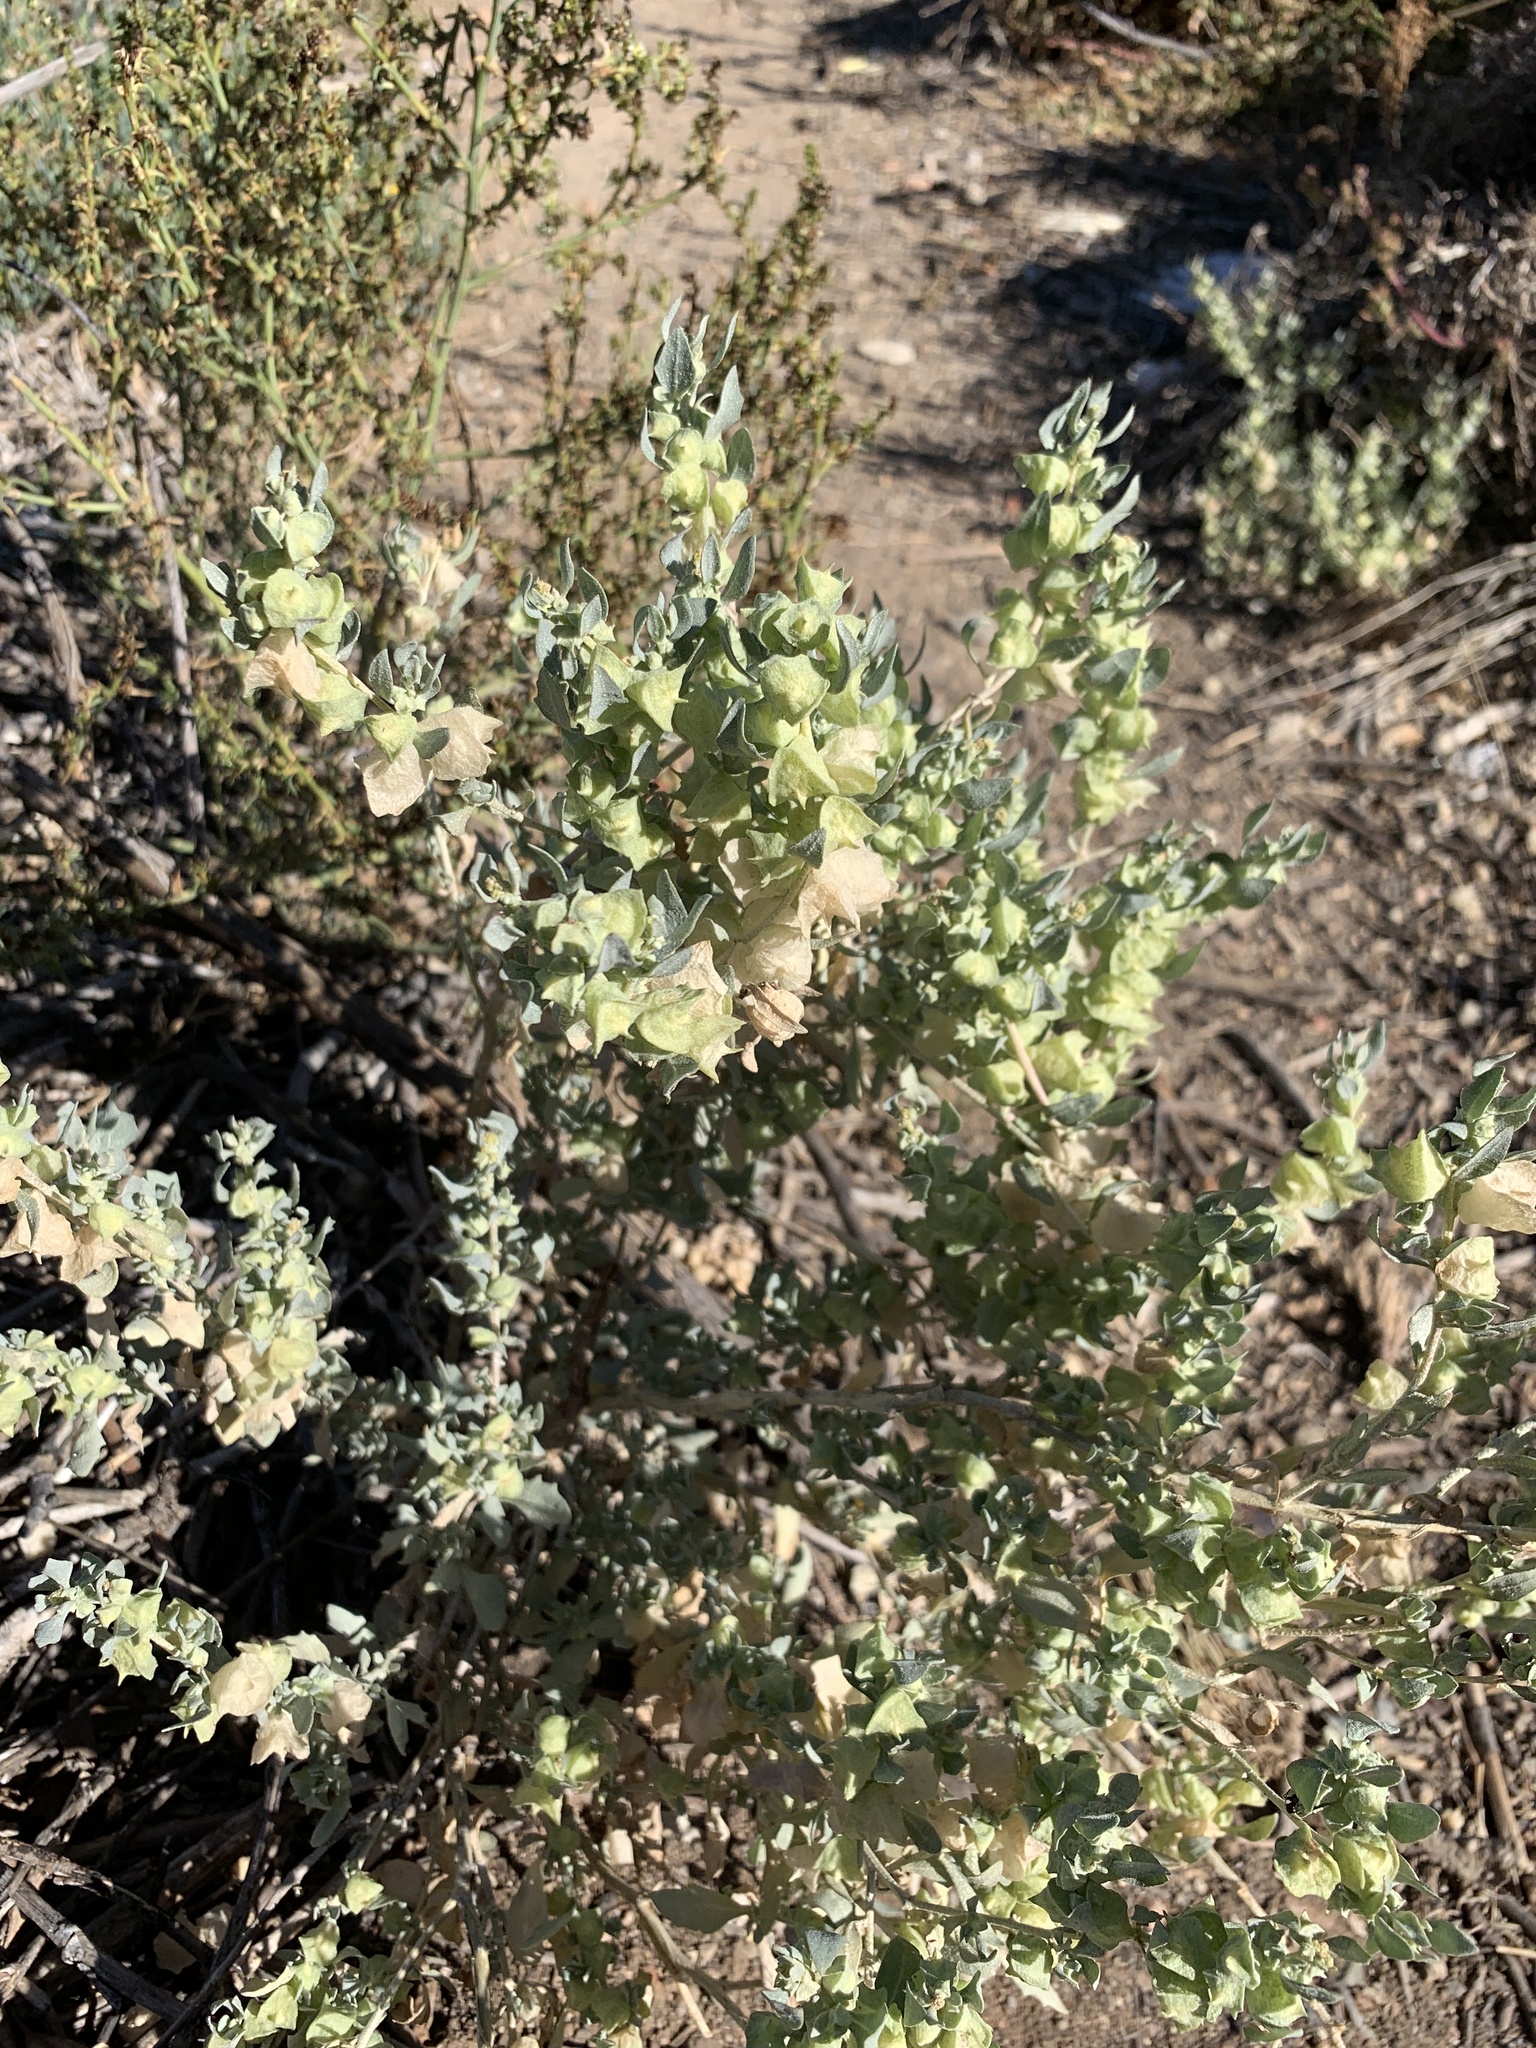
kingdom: Plantae
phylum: Tracheophyta
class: Magnoliopsida
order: Caryophyllales
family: Amaranthaceae
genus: Atriplex
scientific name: Atriplex lindleyi
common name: Lindley's saltbush
